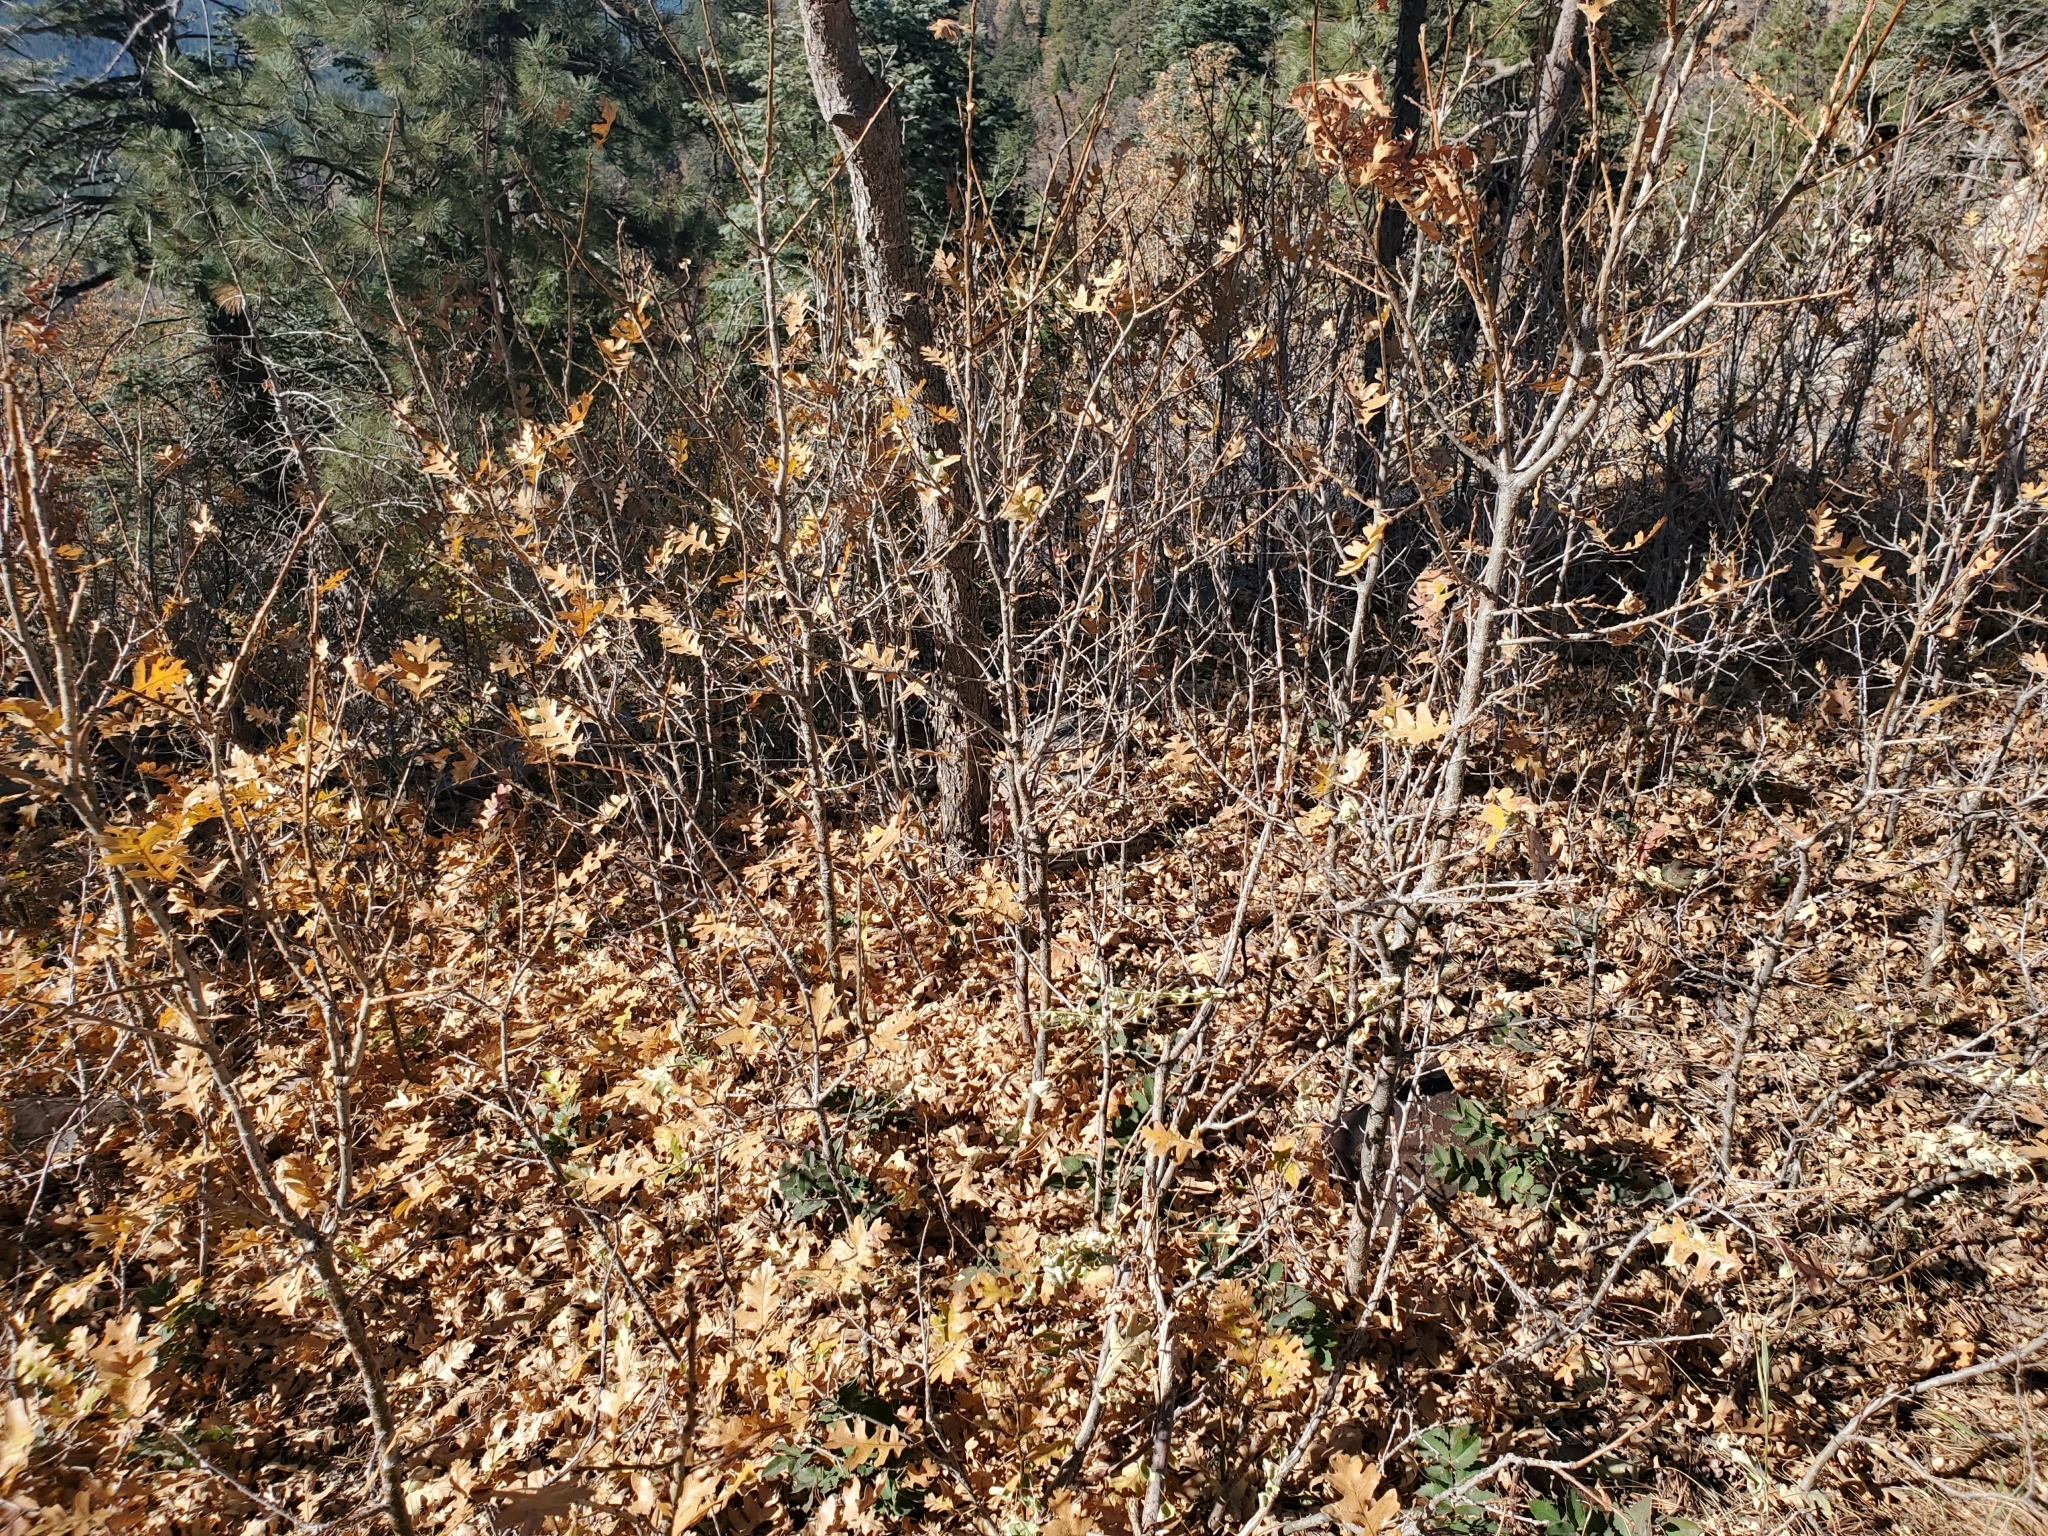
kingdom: Plantae
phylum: Tracheophyta
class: Magnoliopsida
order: Fagales
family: Fagaceae
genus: Quercus
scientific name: Quercus gambelii
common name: Gambel oak
